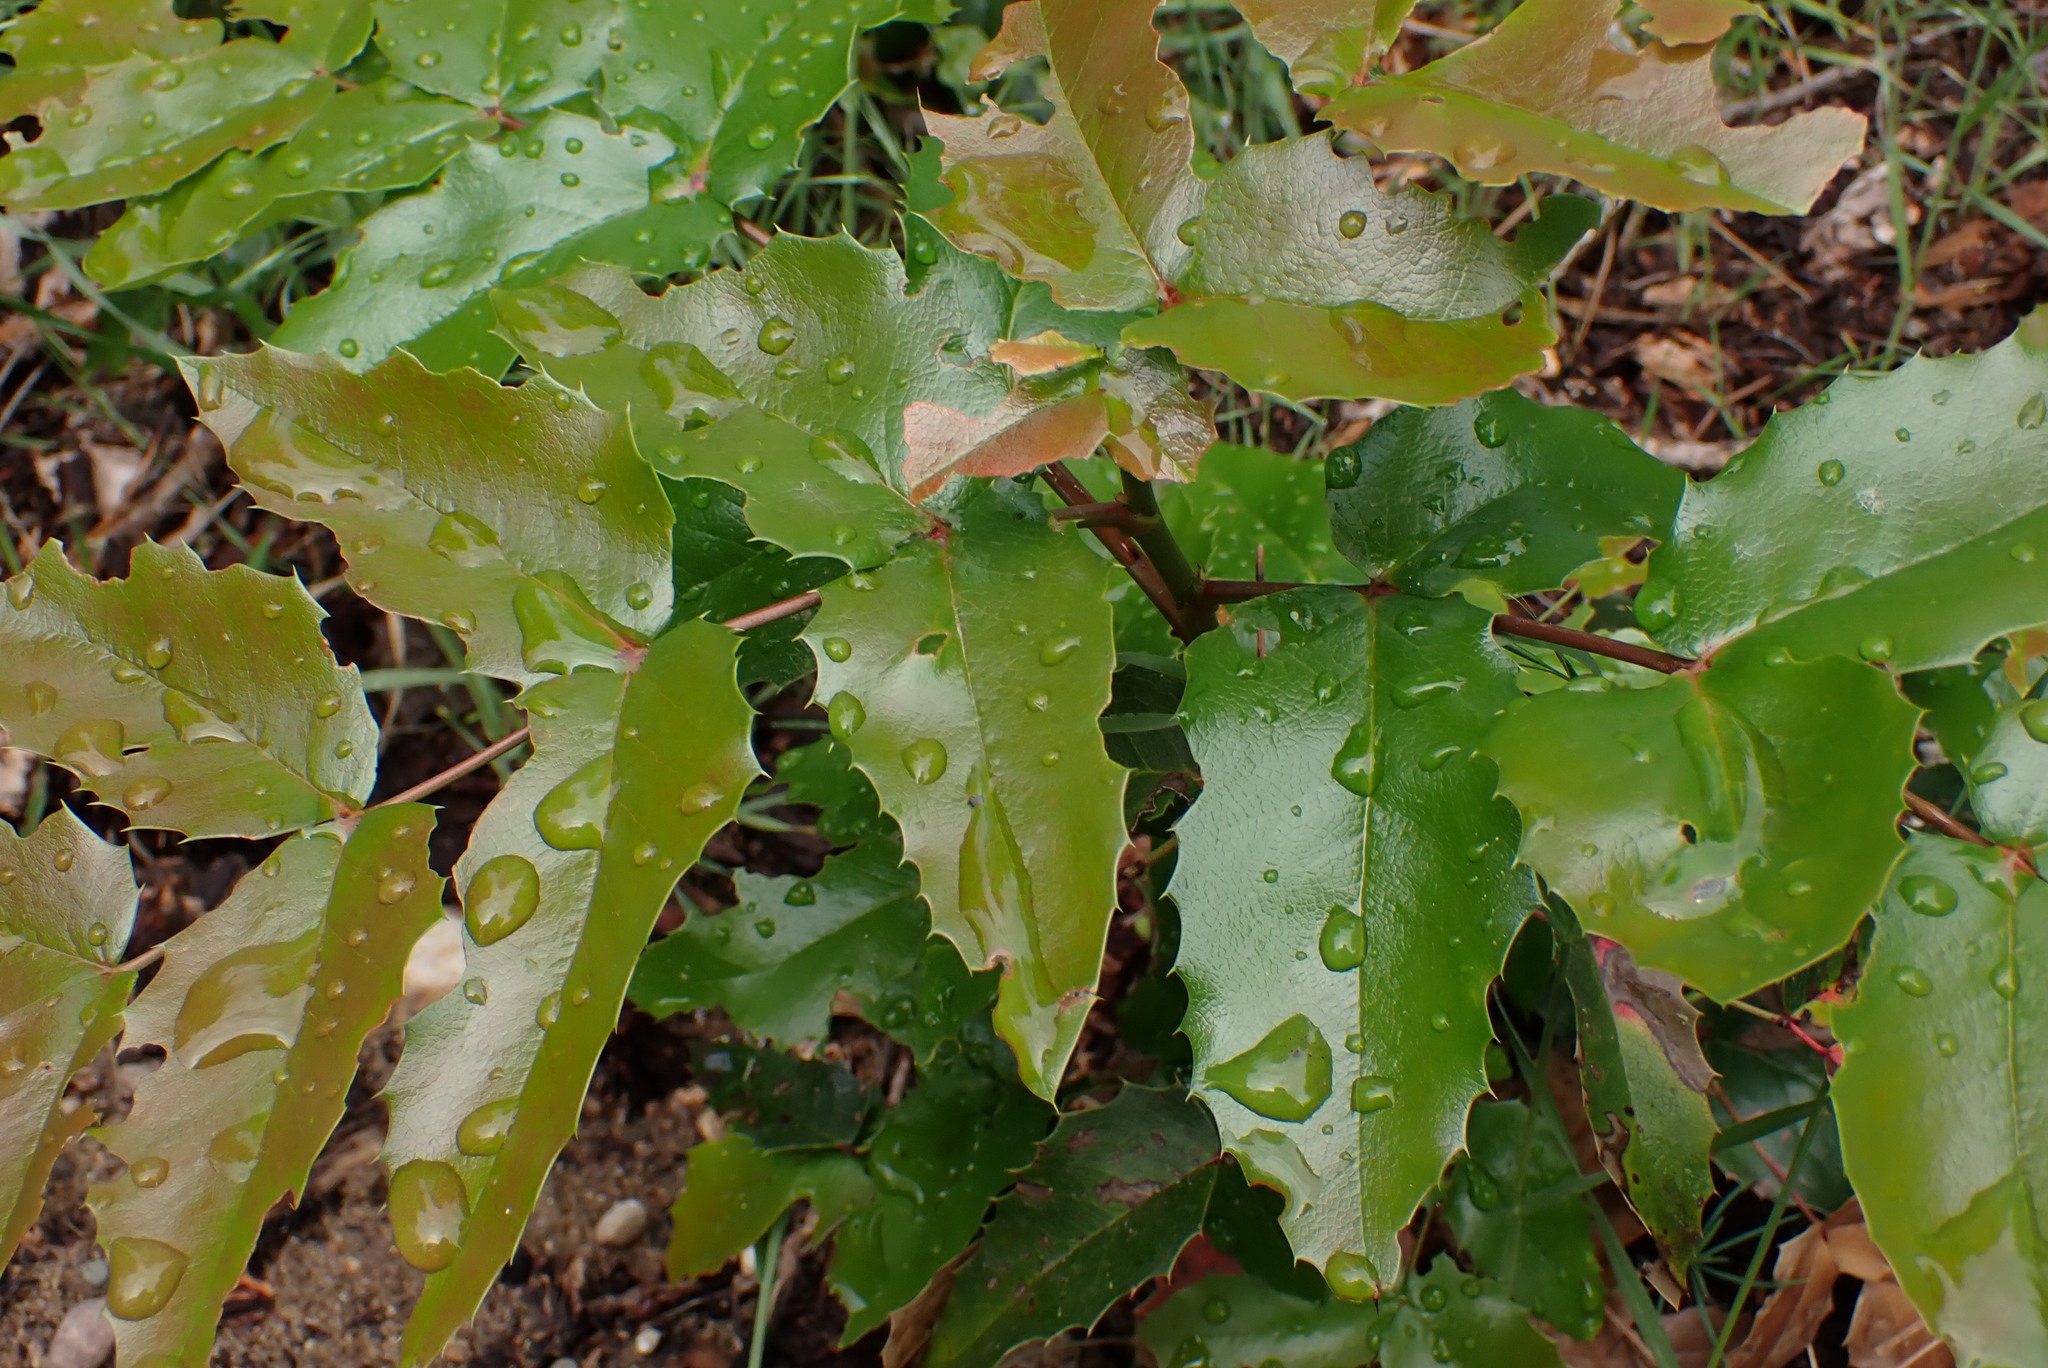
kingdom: Plantae
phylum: Tracheophyta
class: Magnoliopsida
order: Ranunculales
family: Berberidaceae
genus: Mahonia
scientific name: Mahonia aquifolium
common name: Oregon-grape
